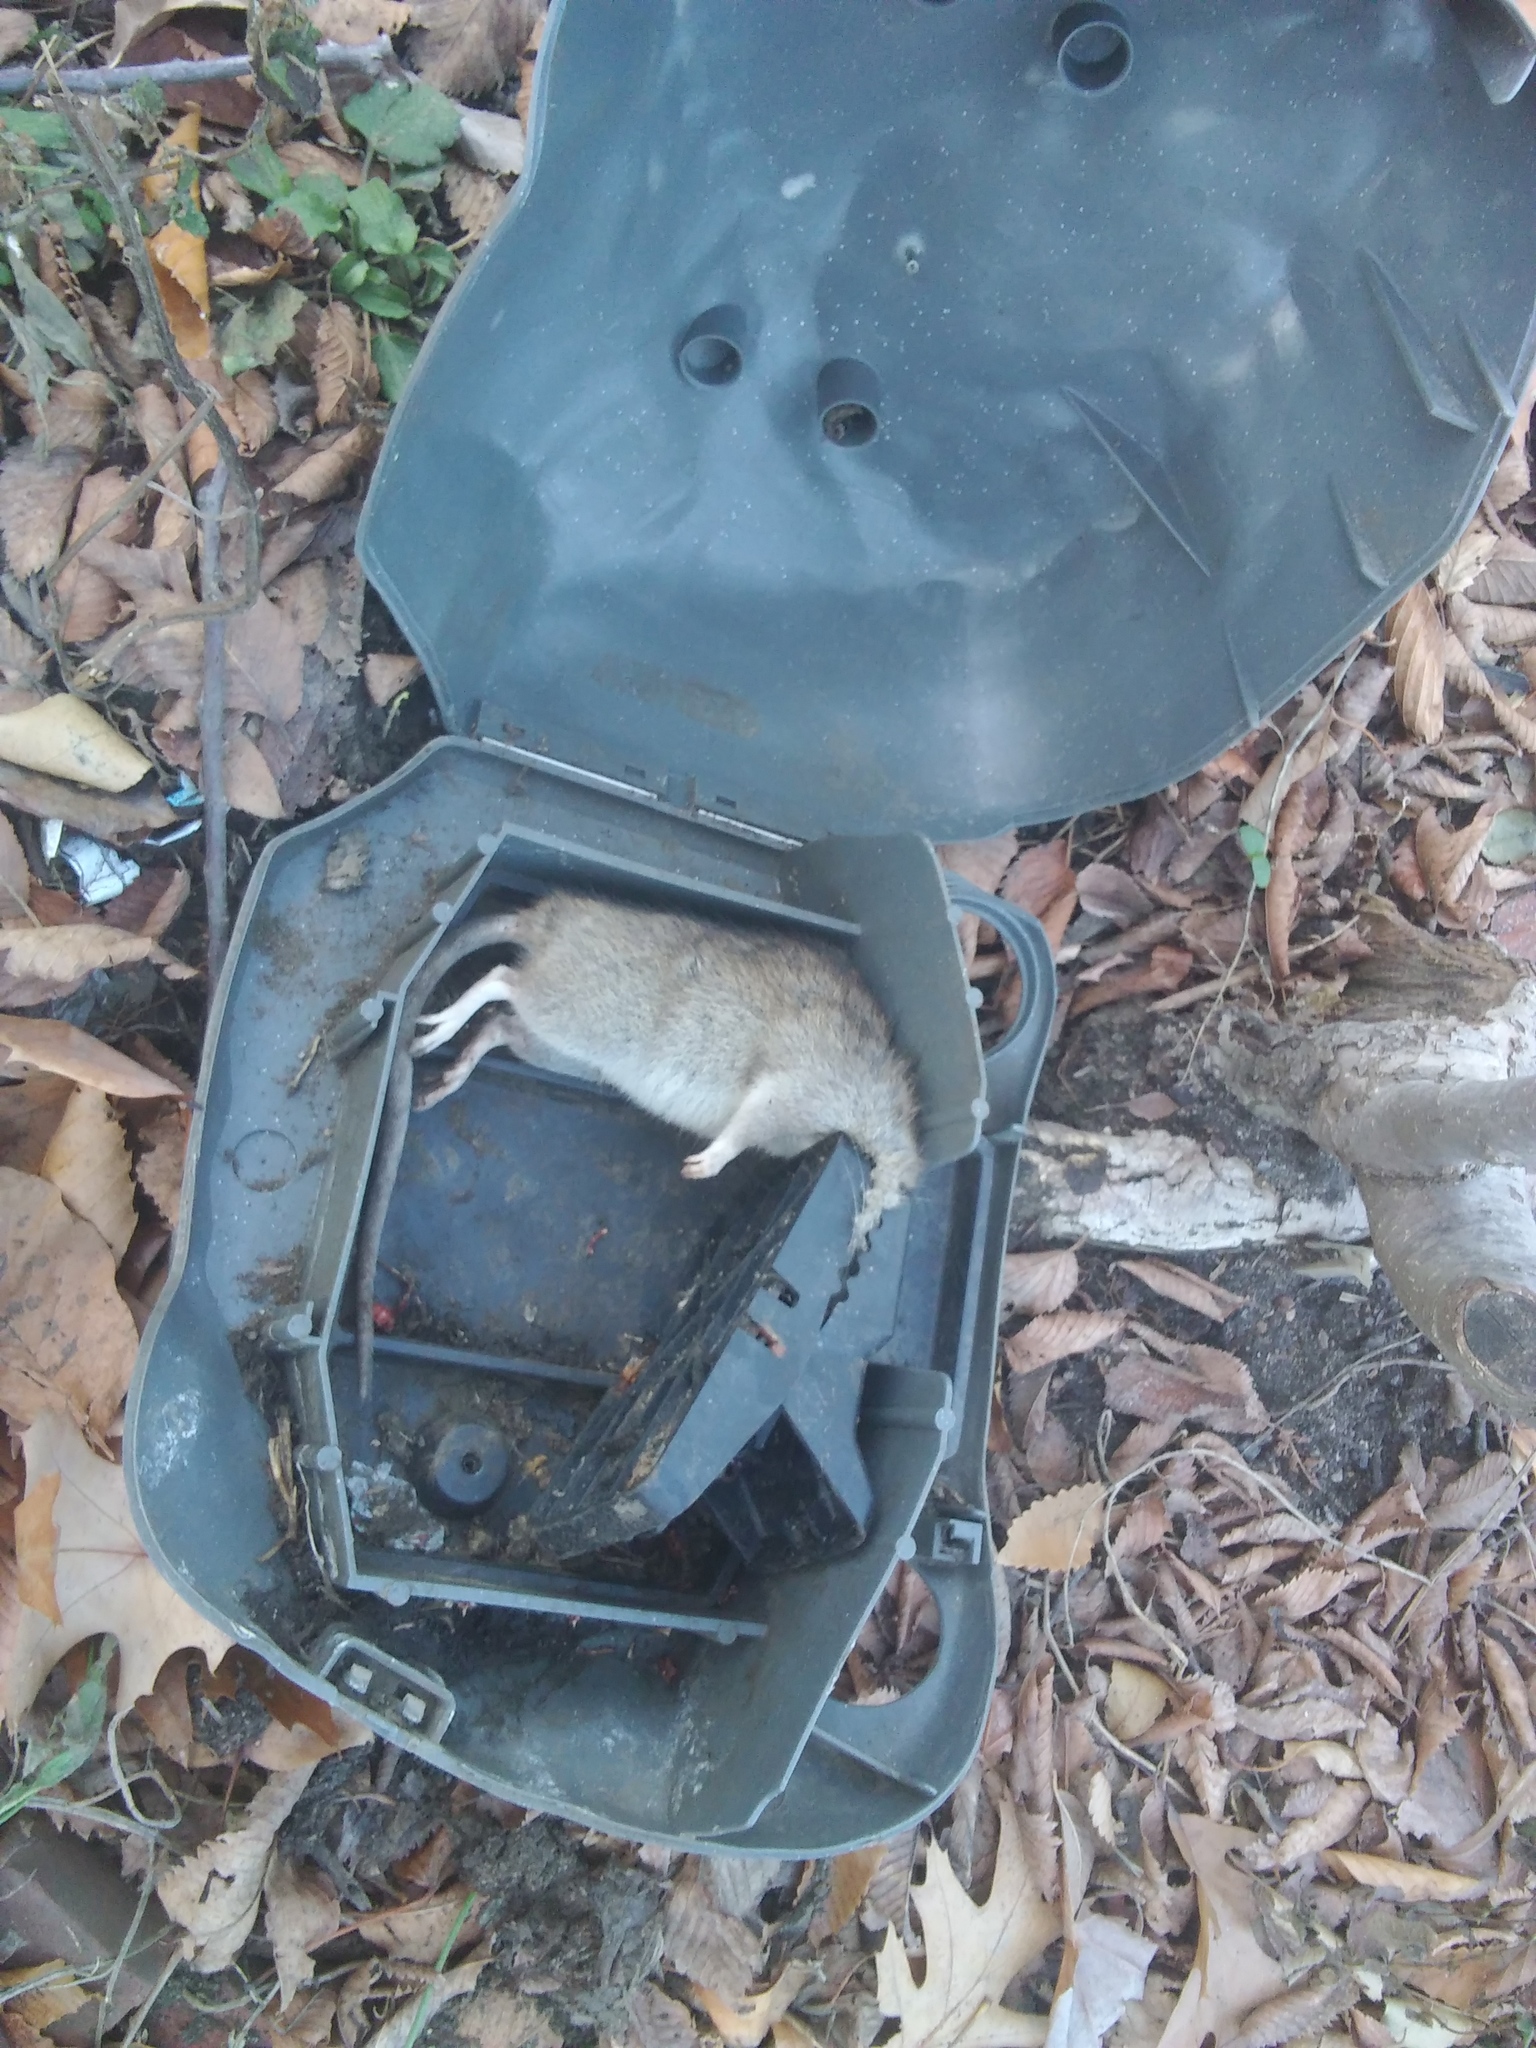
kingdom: Animalia
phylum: Chordata
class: Mammalia
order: Rodentia
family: Muridae
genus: Rattus
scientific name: Rattus norvegicus
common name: Brown rat
